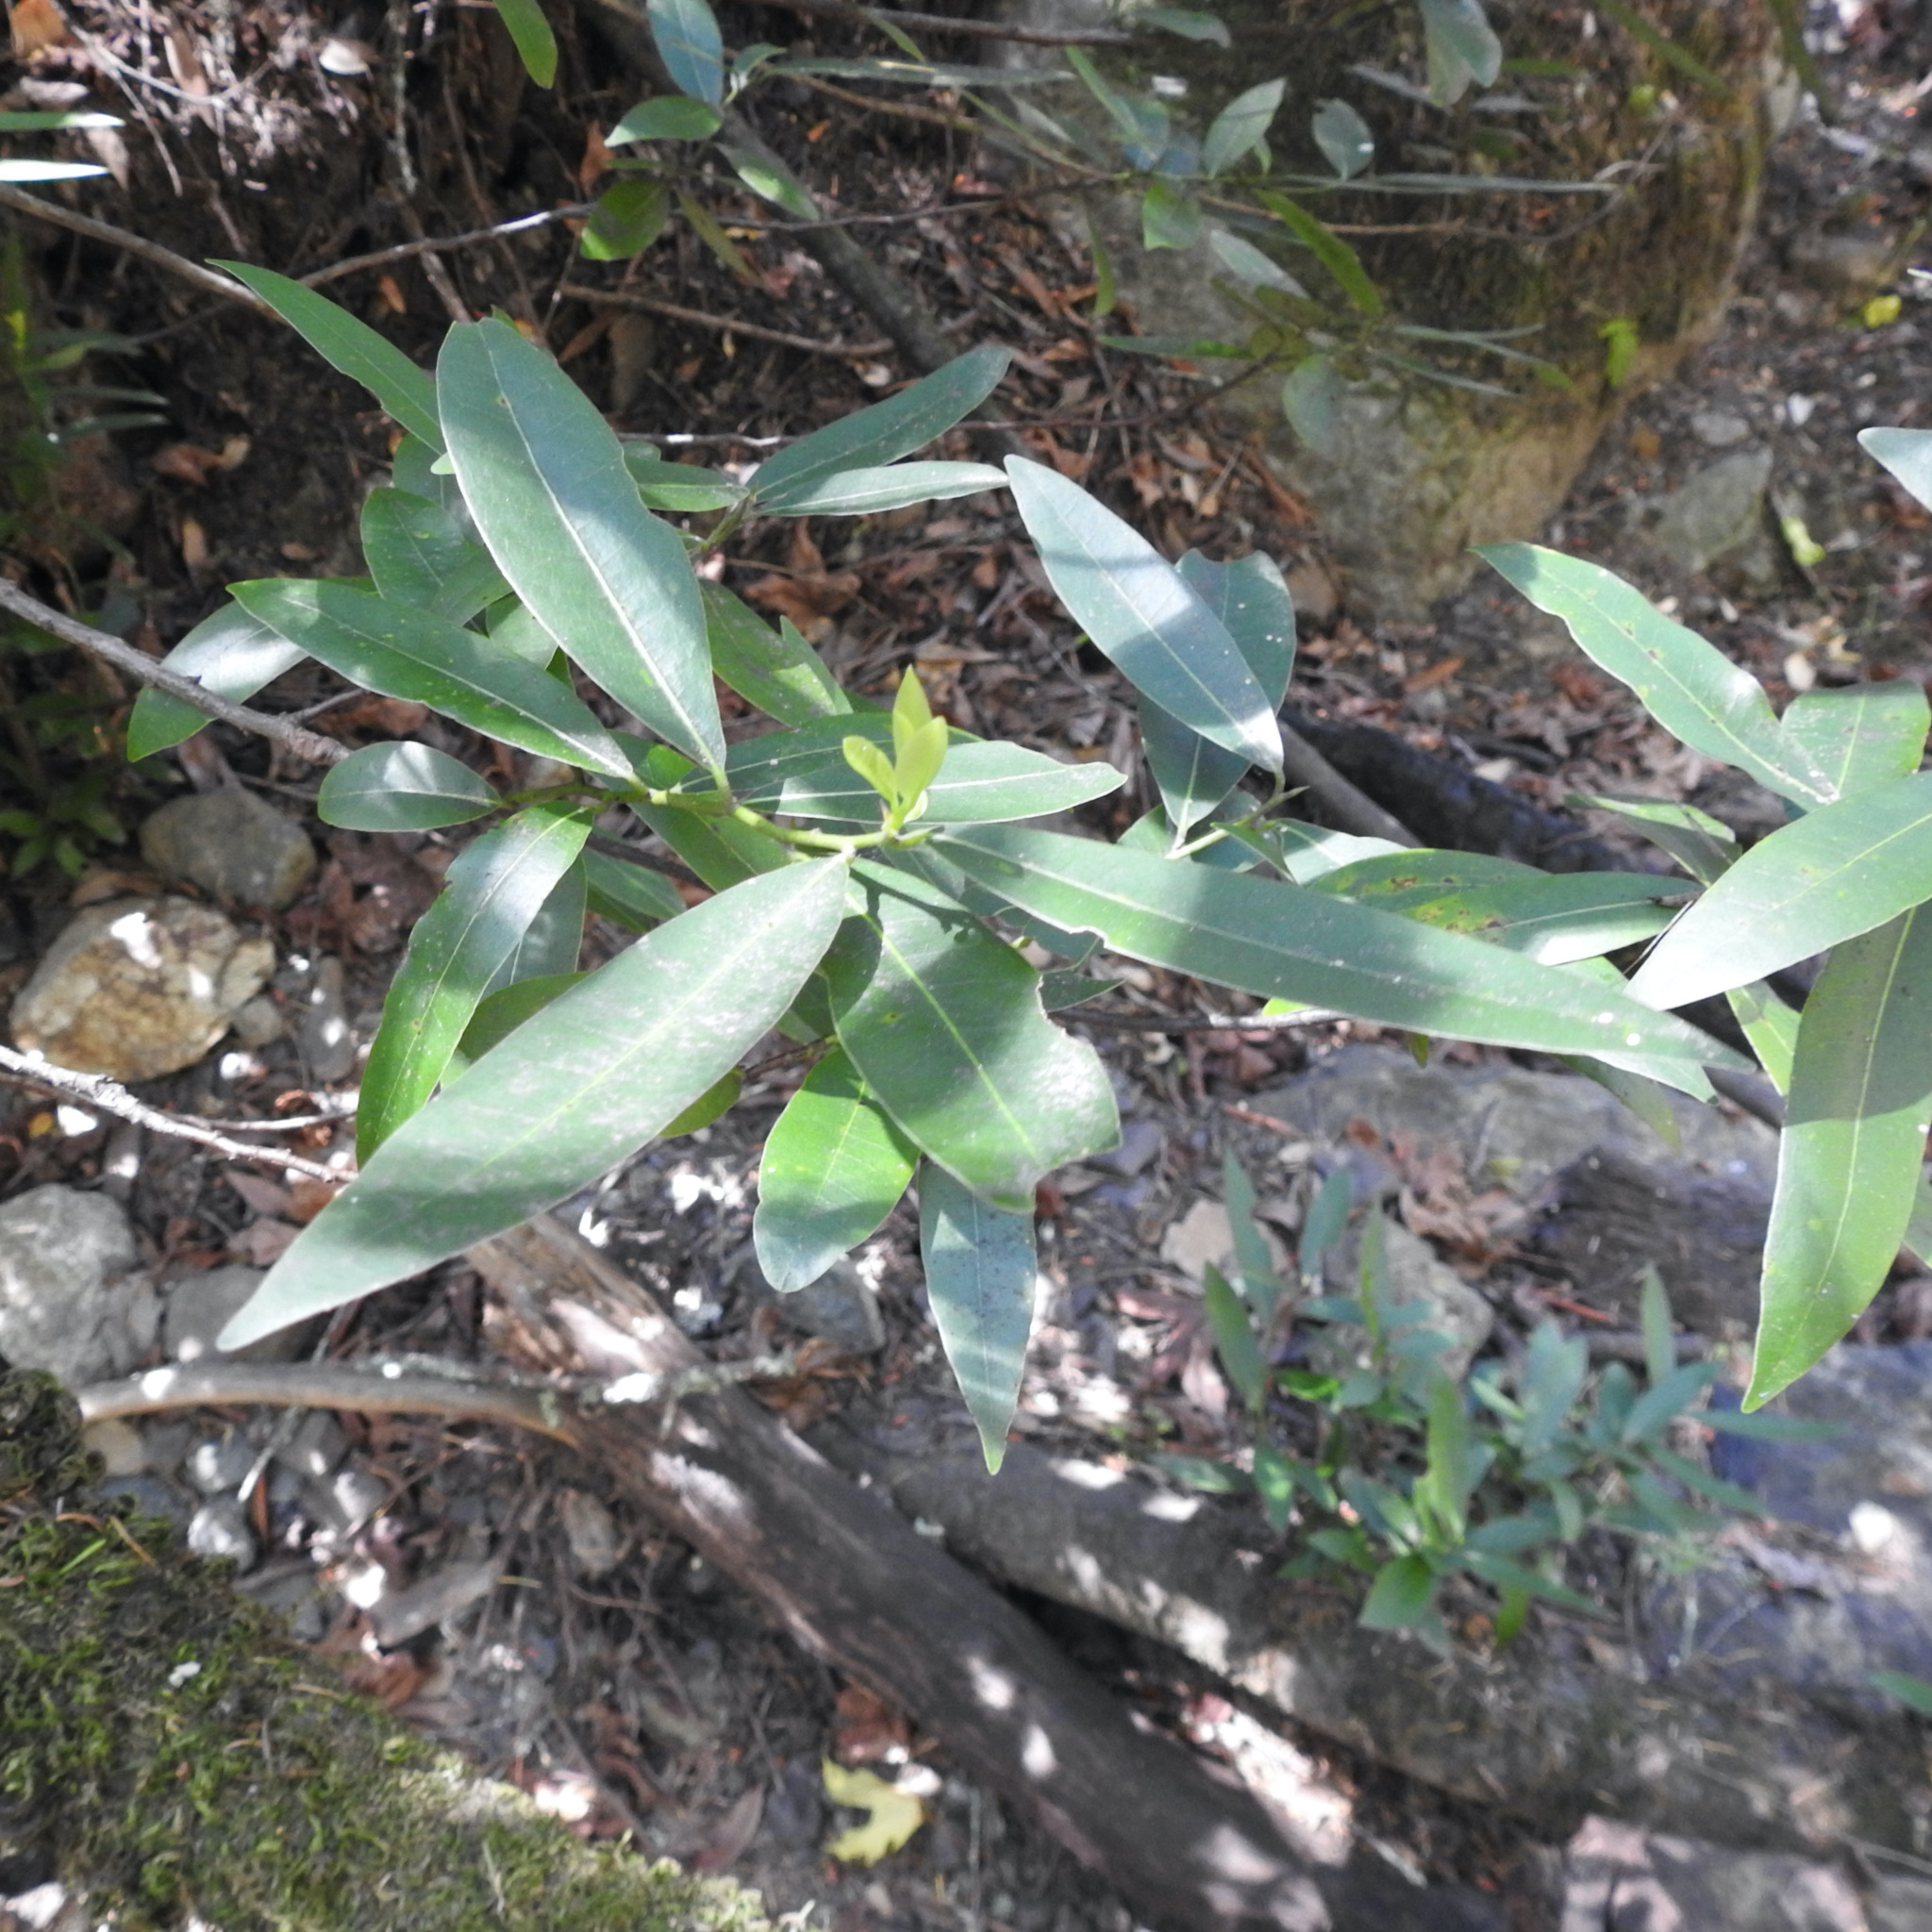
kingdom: Plantae
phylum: Tracheophyta
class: Magnoliopsida
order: Laurales
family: Lauraceae
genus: Umbellularia
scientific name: Umbellularia californica
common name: California bay
